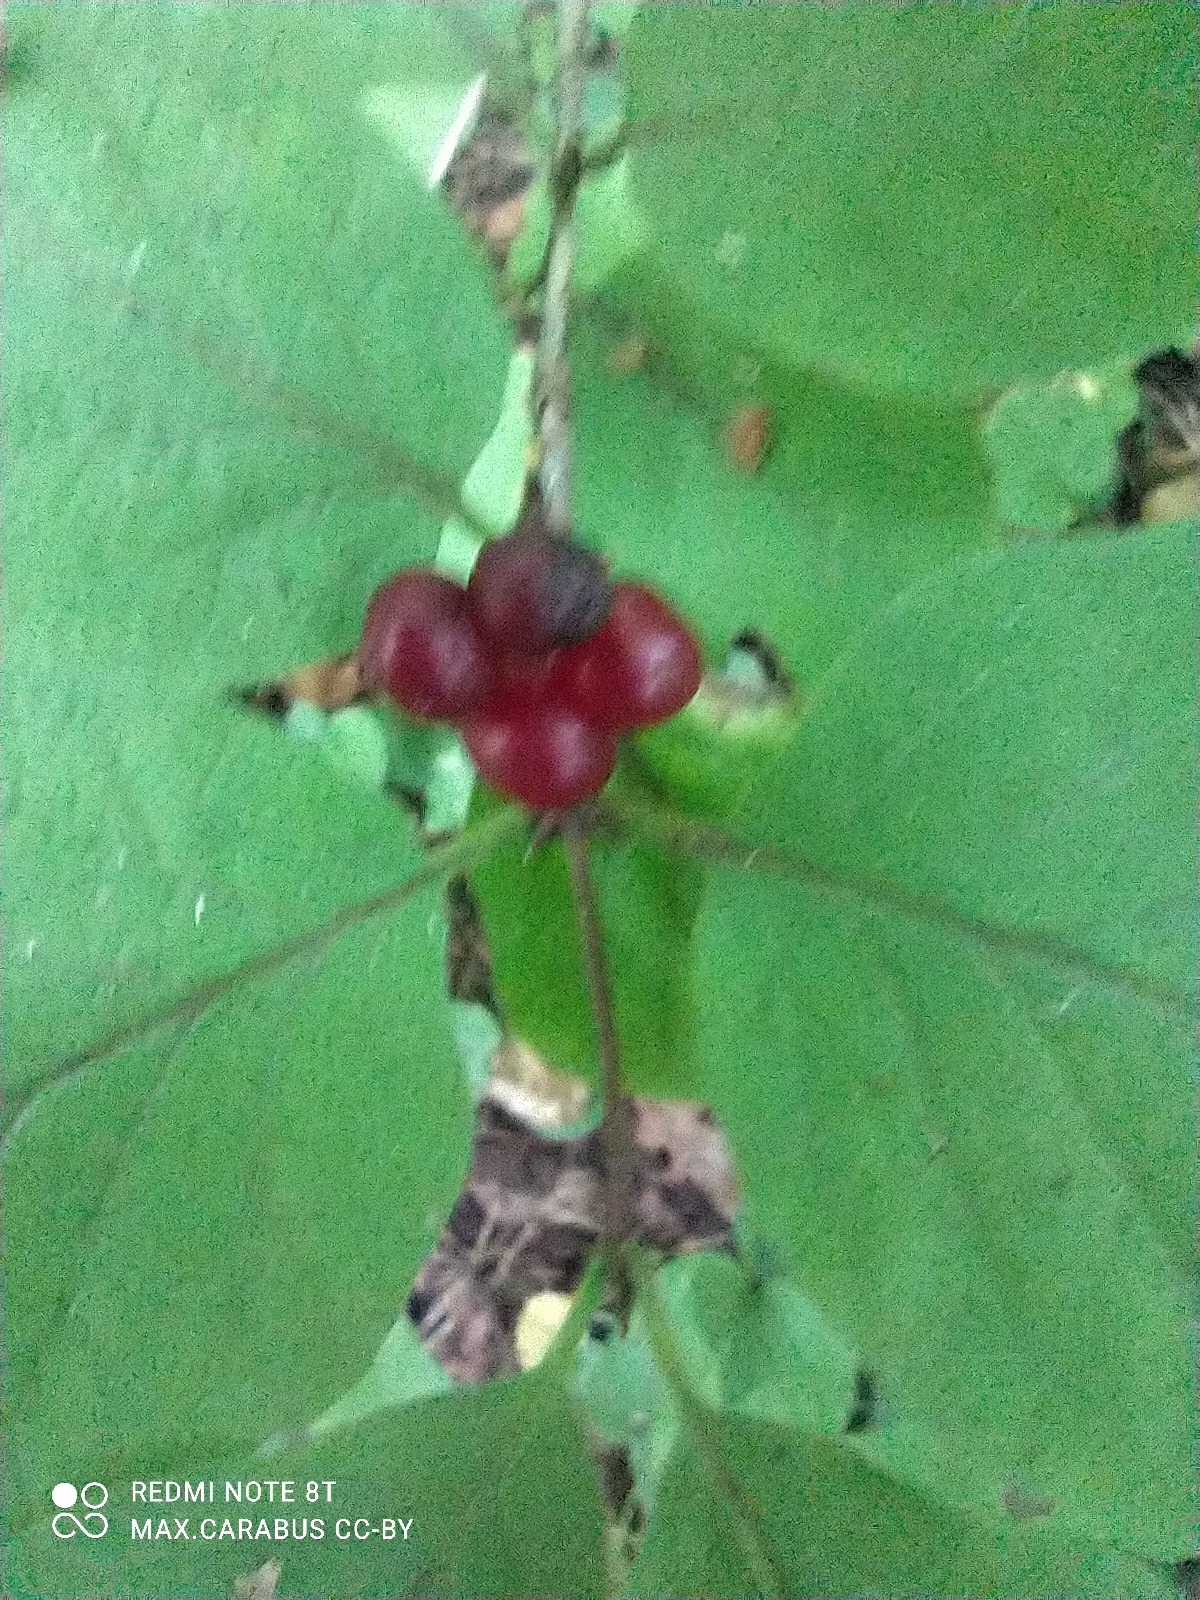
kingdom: Plantae
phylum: Tracheophyta
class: Magnoliopsida
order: Dipsacales
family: Caprifoliaceae
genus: Lonicera
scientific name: Lonicera xylosteum
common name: Fly honeysuckle
